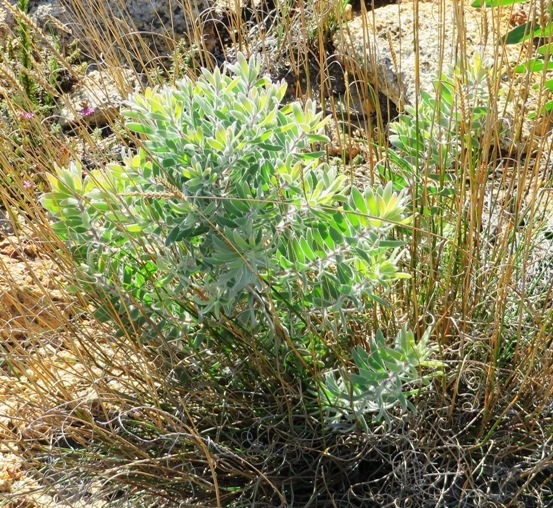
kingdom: Plantae
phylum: Tracheophyta
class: Magnoliopsida
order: Proteales
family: Proteaceae
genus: Leucadendron
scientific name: Leucadendron rubrum
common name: Spinning top
